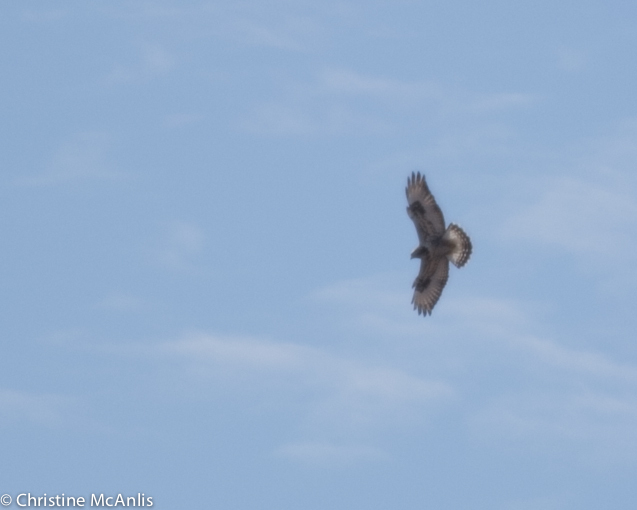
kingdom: Animalia
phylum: Chordata
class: Aves
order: Accipitriformes
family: Accipitridae
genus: Buteo
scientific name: Buteo lagopus
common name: Rough-legged buzzard
